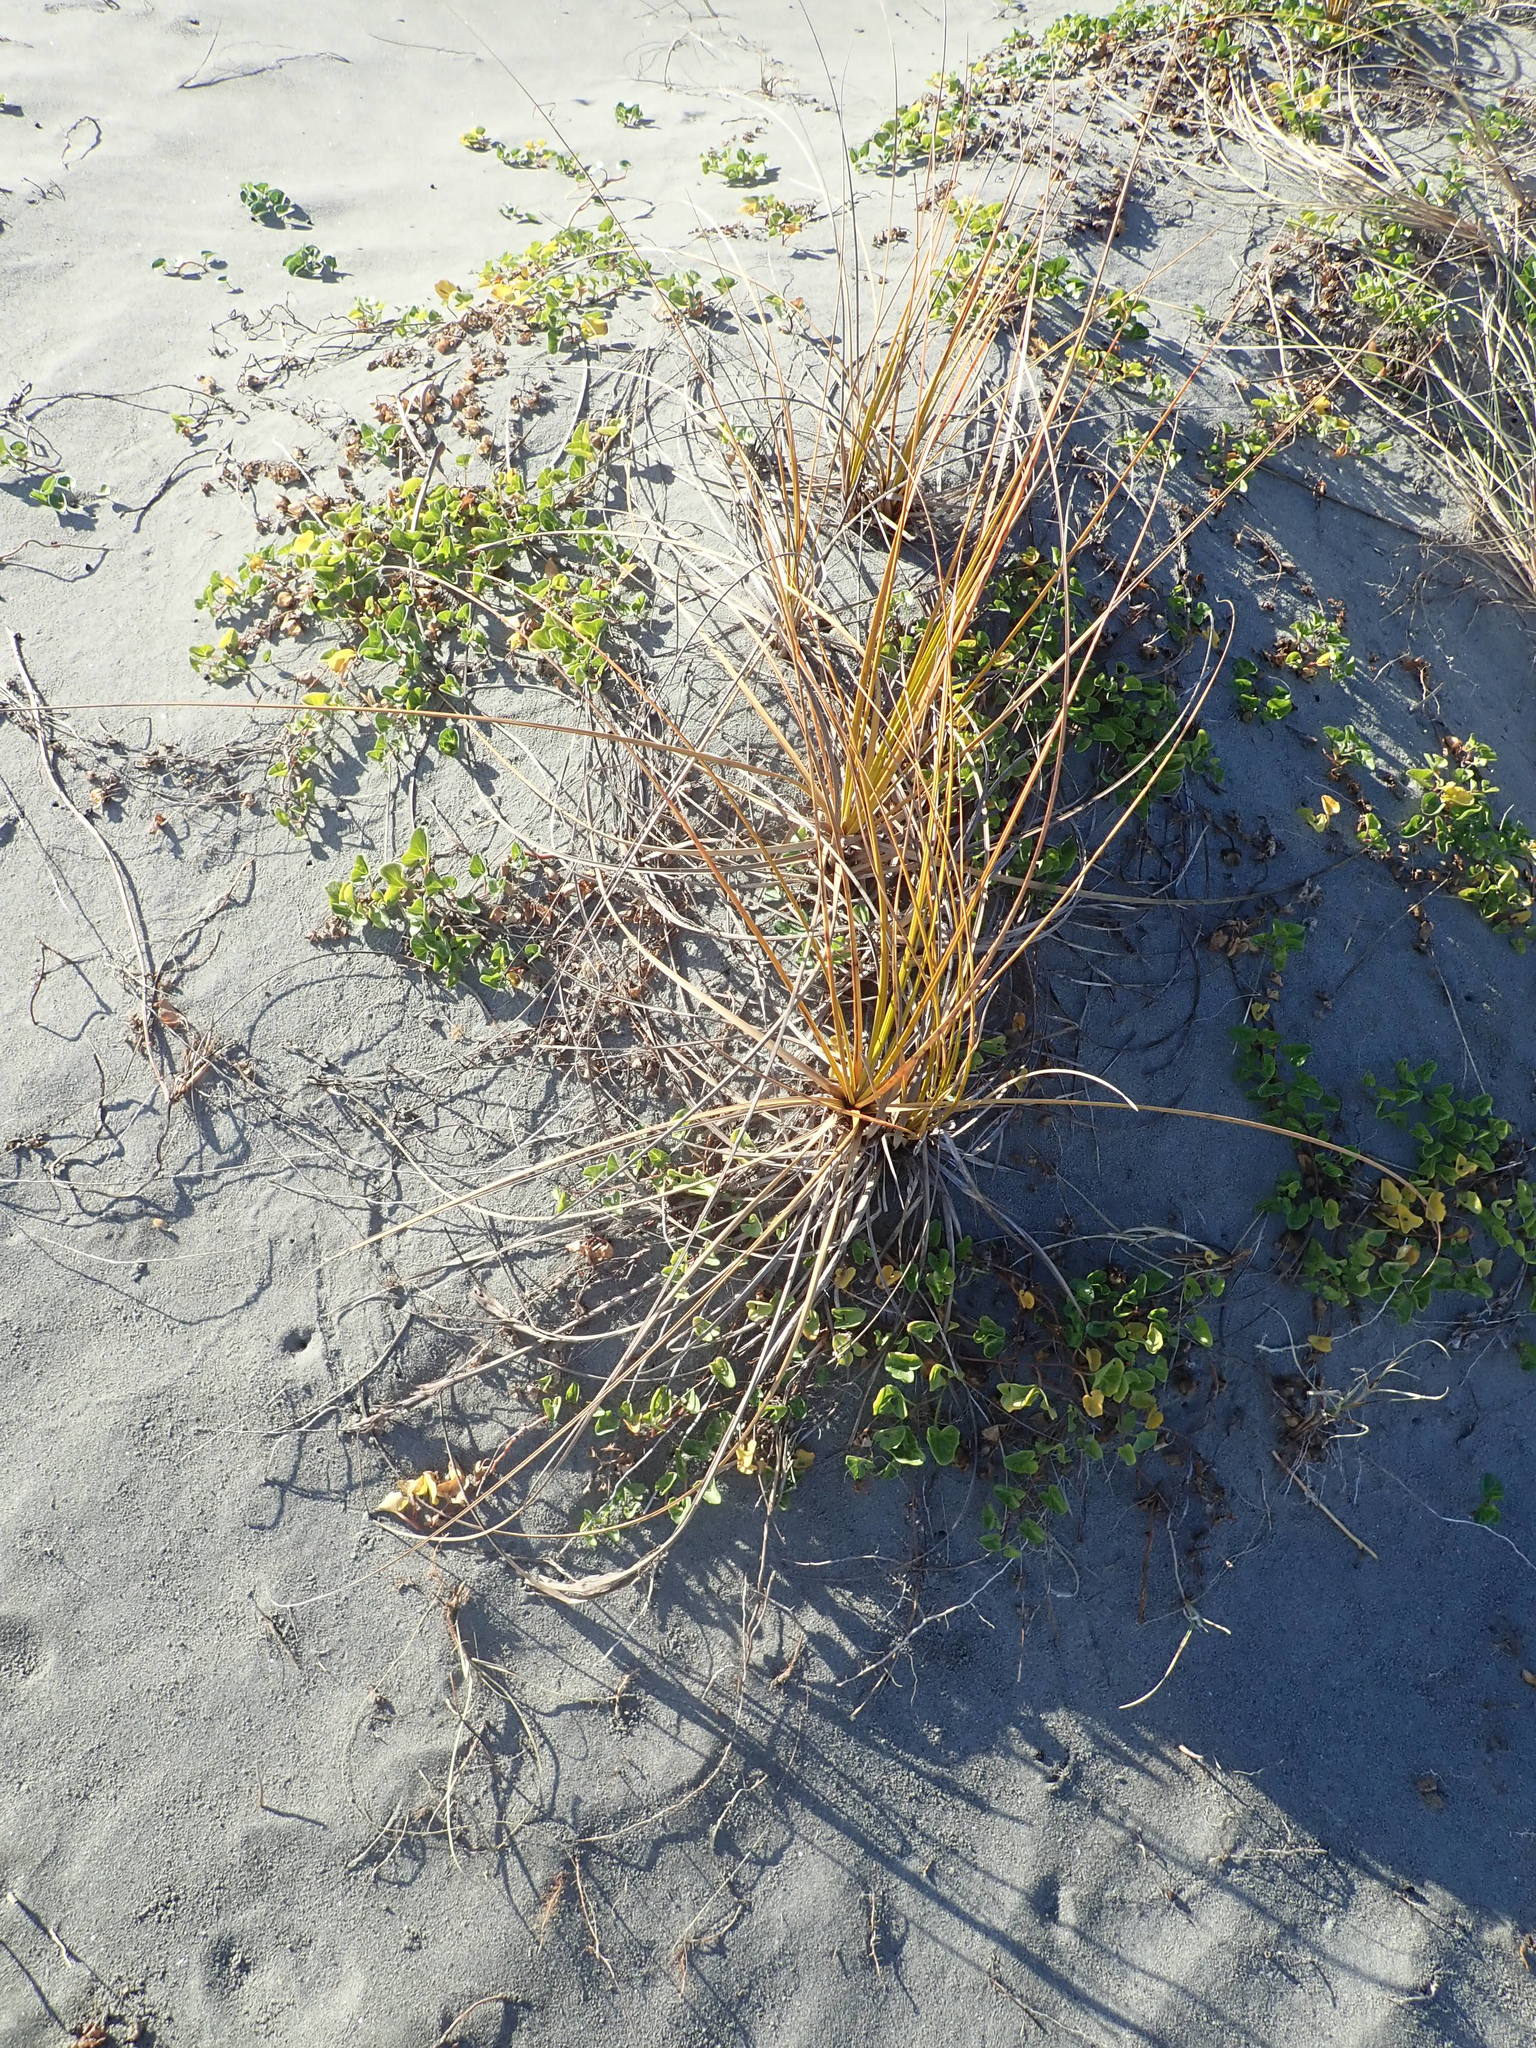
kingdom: Plantae
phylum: Tracheophyta
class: Liliopsida
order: Poales
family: Cyperaceae
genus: Ficinia
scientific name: Ficinia spiralis
